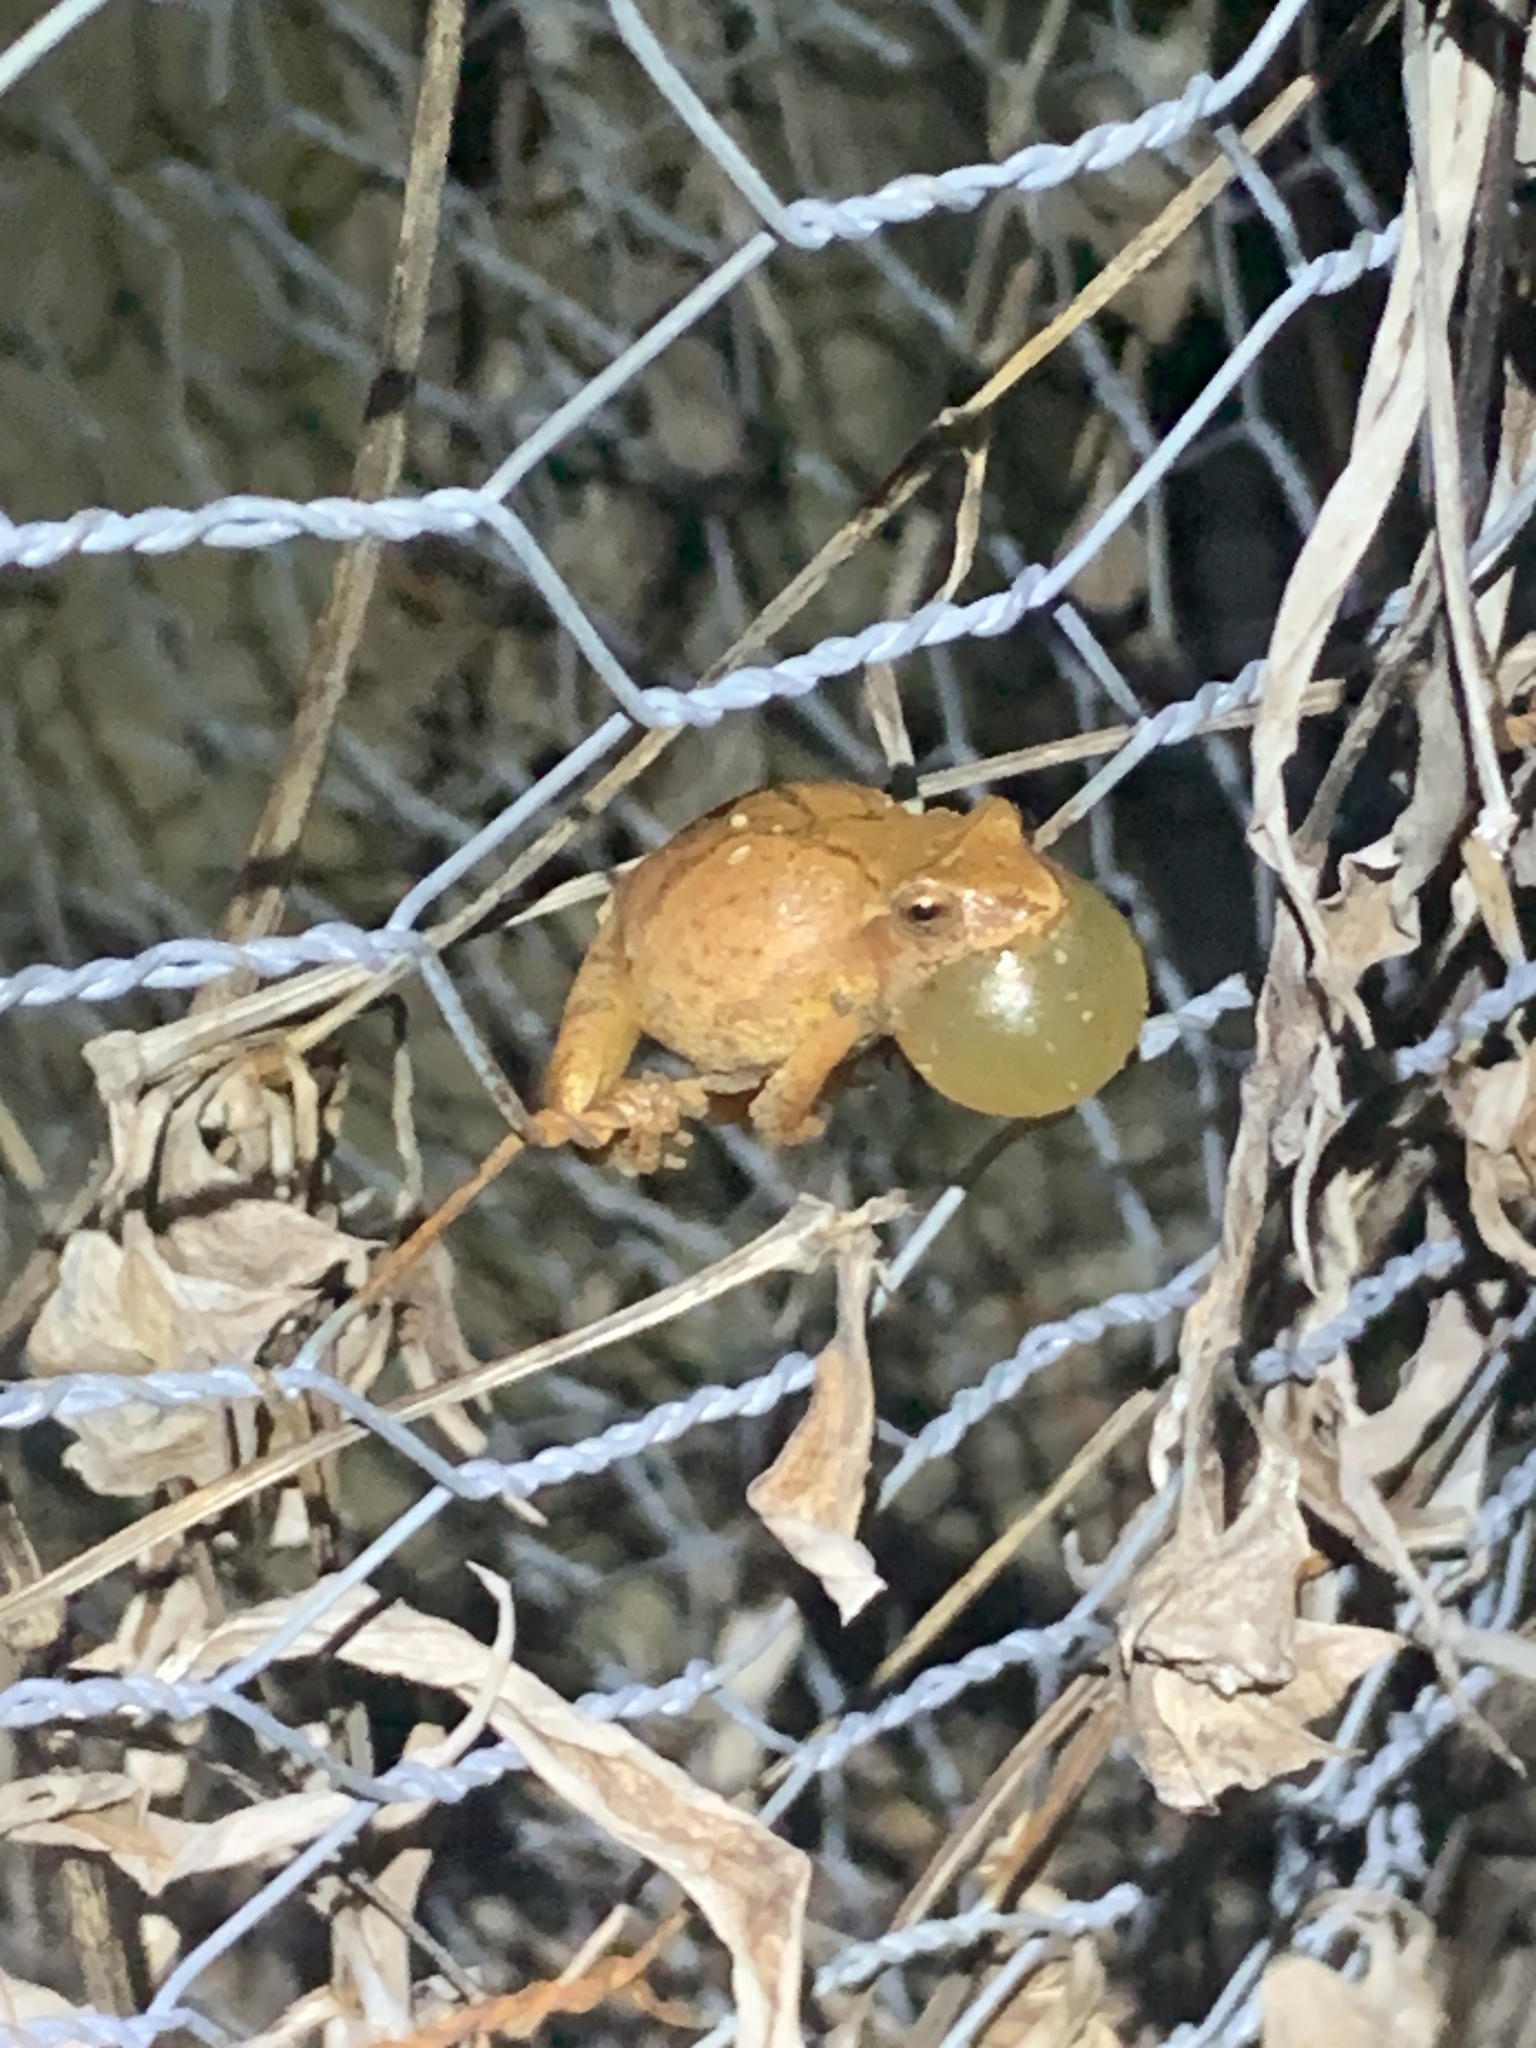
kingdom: Animalia
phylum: Chordata
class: Amphibia
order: Anura
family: Hylidae
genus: Pseudacris
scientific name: Pseudacris crucifer
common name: Spring peeper
